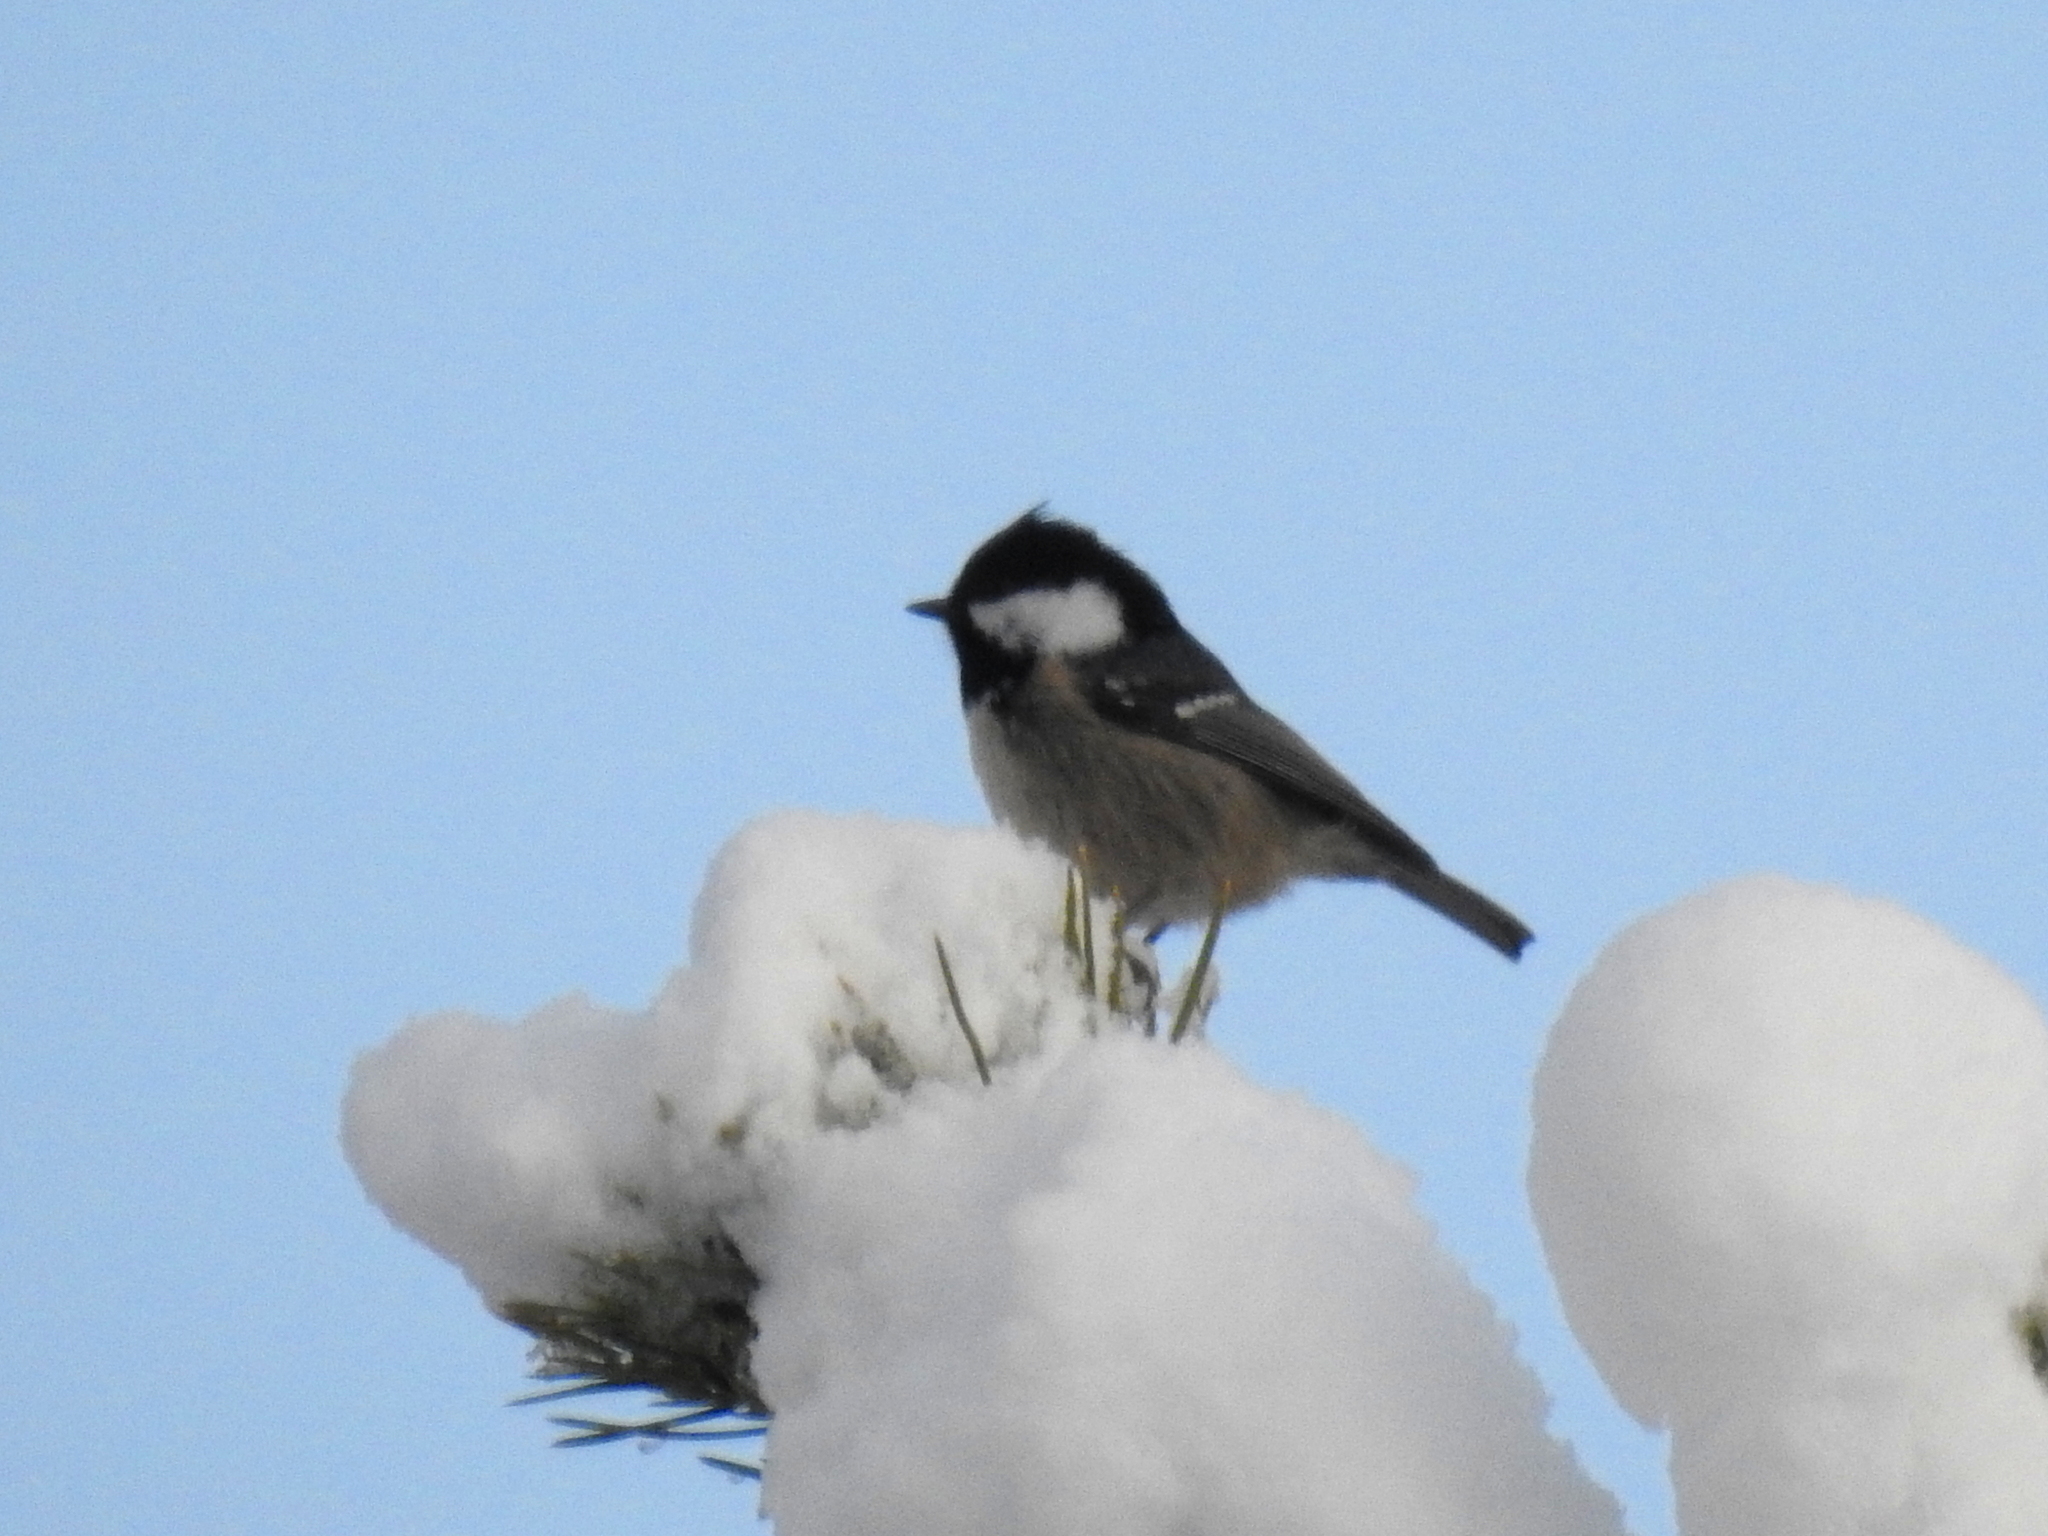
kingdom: Animalia
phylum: Chordata
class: Aves
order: Passeriformes
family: Paridae
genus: Periparus
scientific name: Periparus ater
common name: Coal tit
